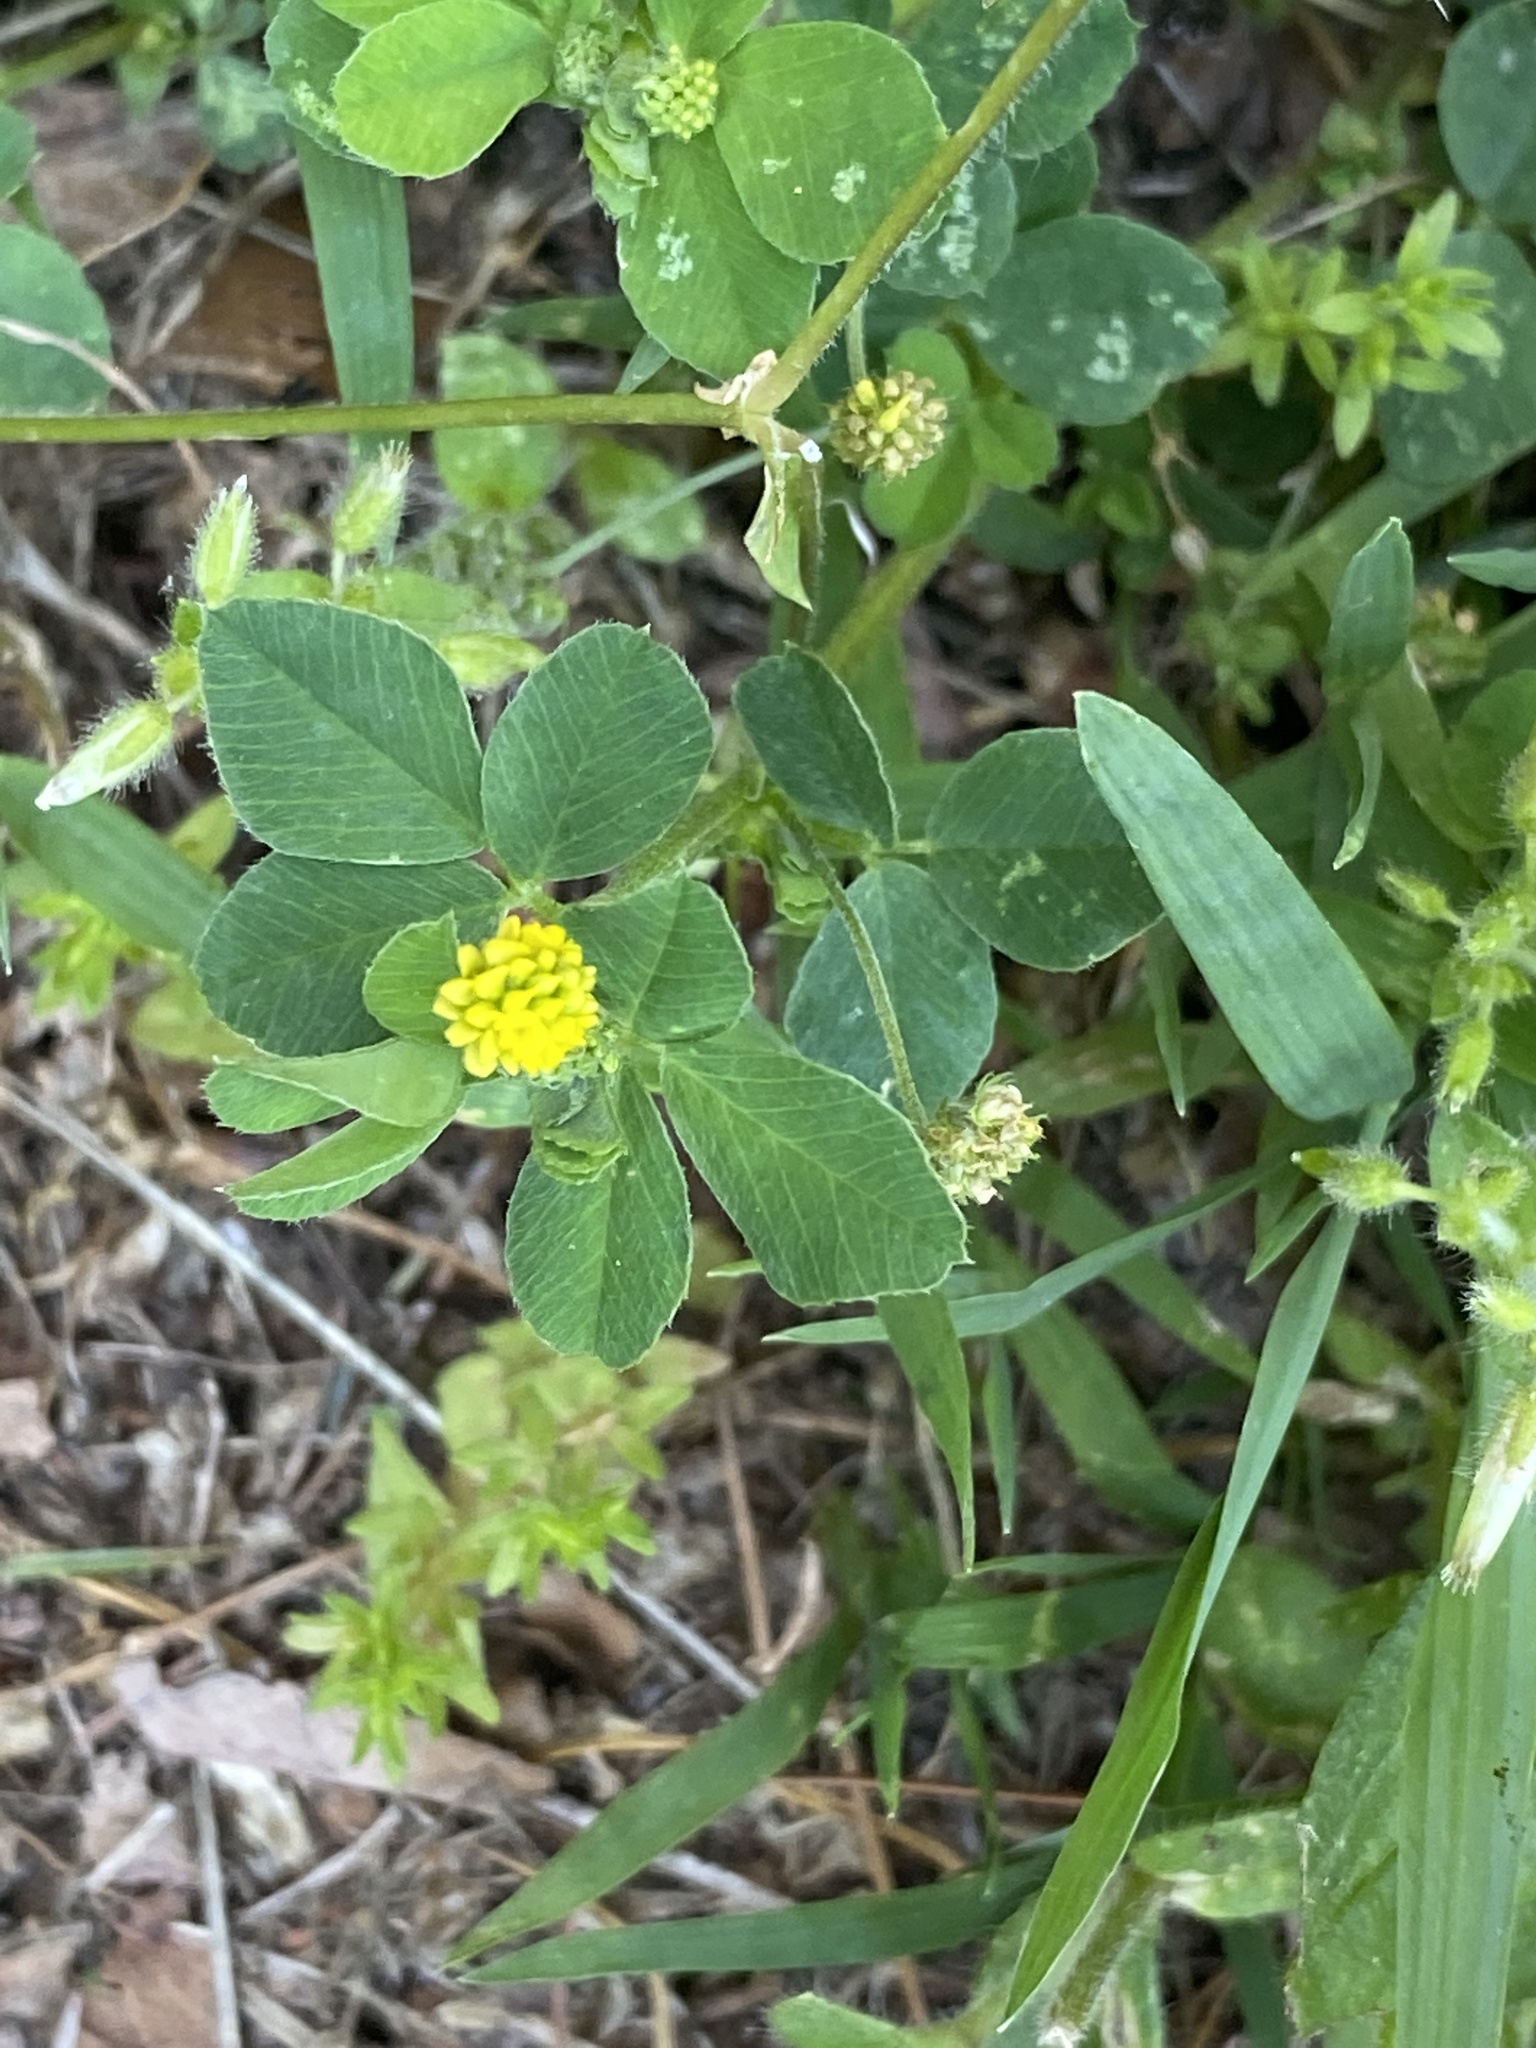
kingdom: Plantae
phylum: Tracheophyta
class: Magnoliopsida
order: Fabales
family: Fabaceae
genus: Medicago
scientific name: Medicago lupulina
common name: Black medick
